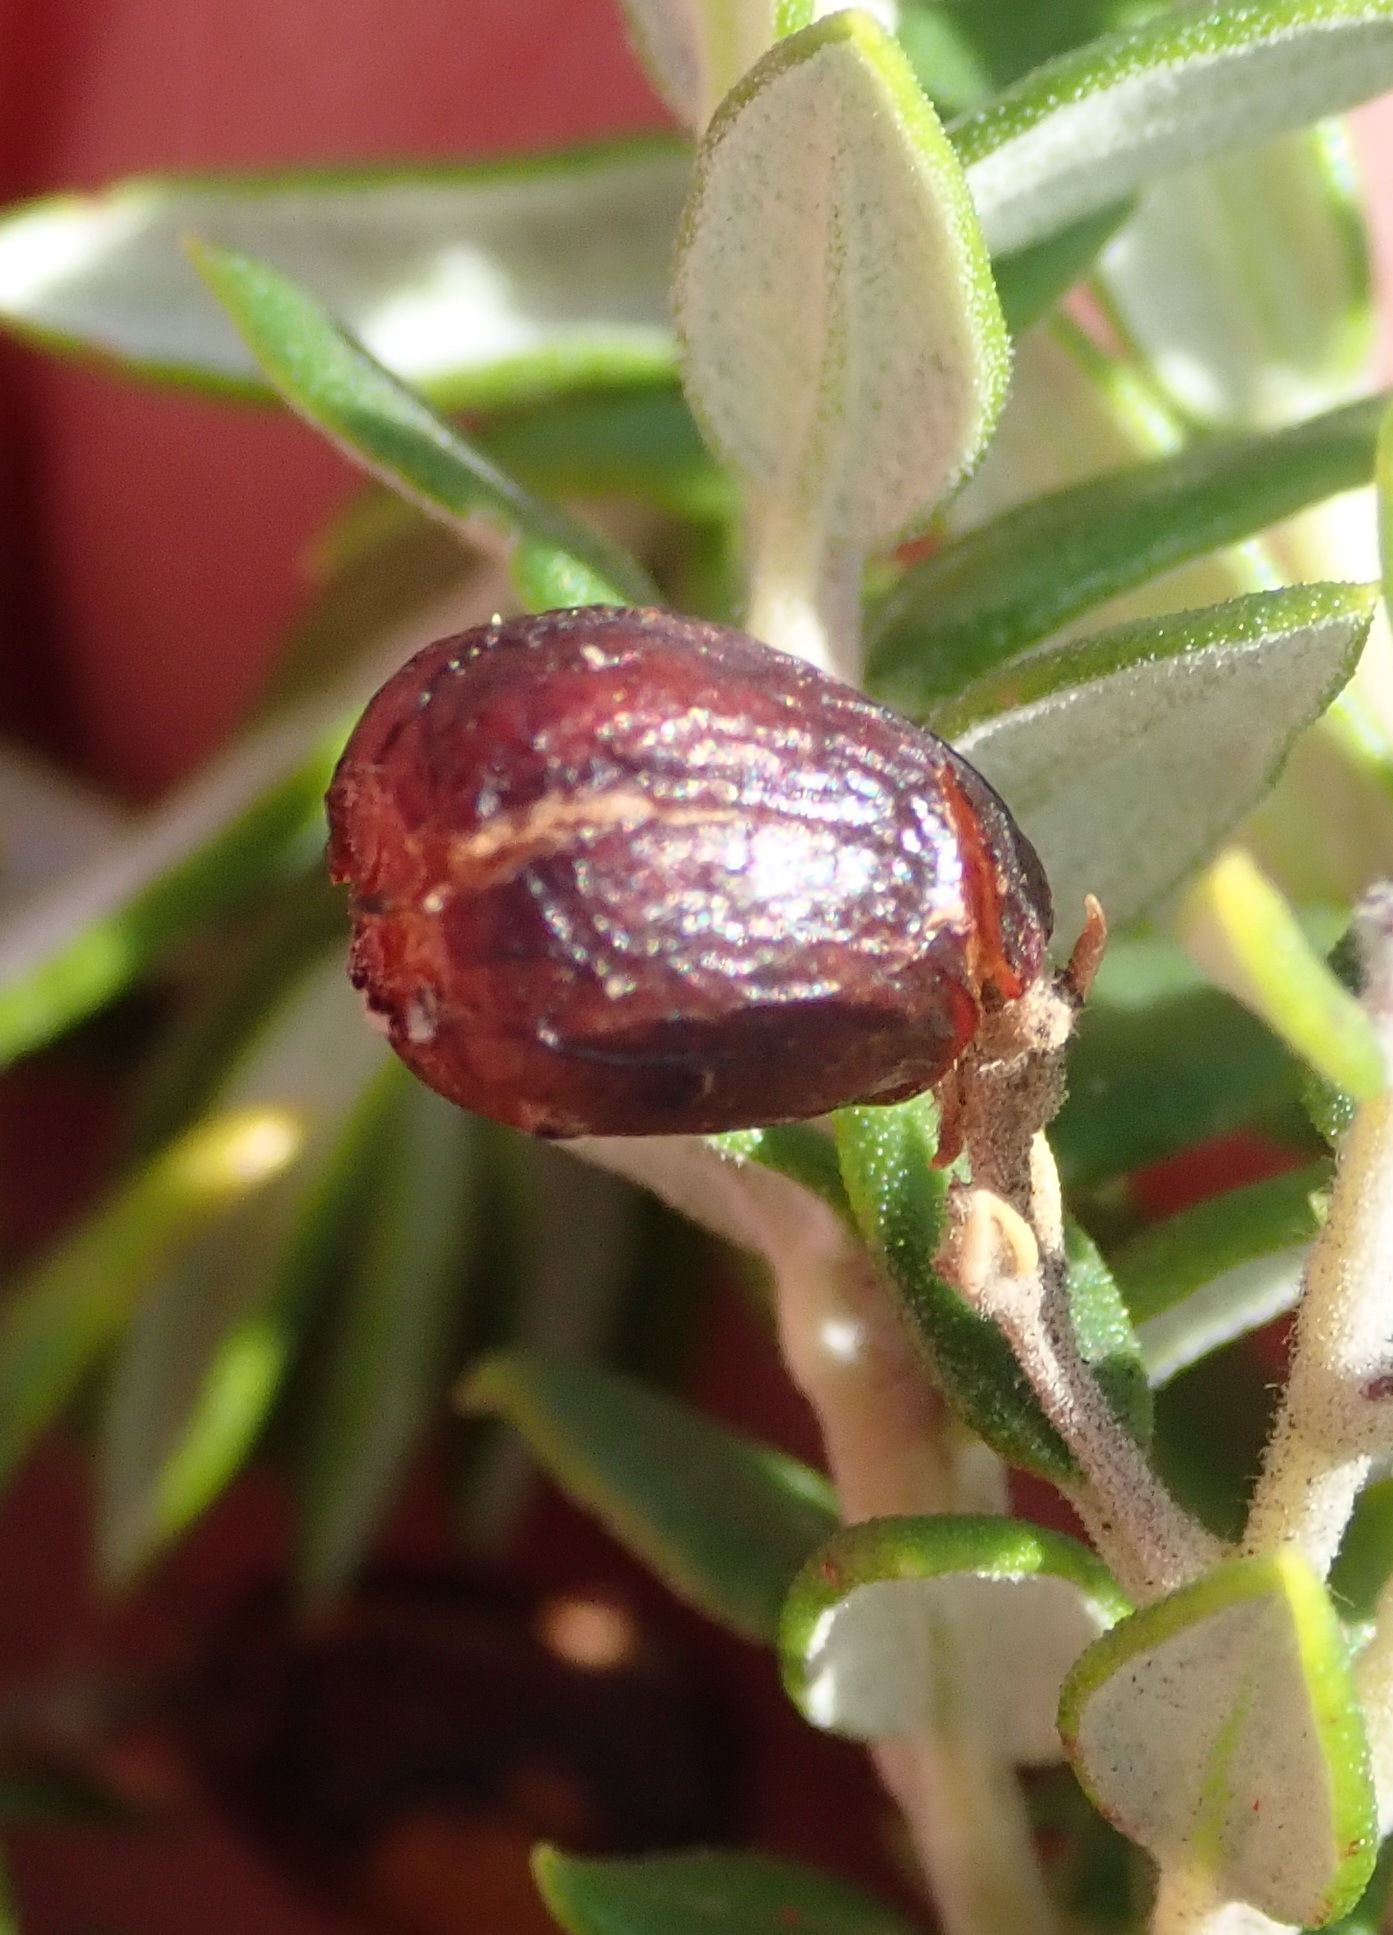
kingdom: Plantae
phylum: Tracheophyta
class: Magnoliopsida
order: Rosales
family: Rhamnaceae
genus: Phylica
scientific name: Phylica paniculata
